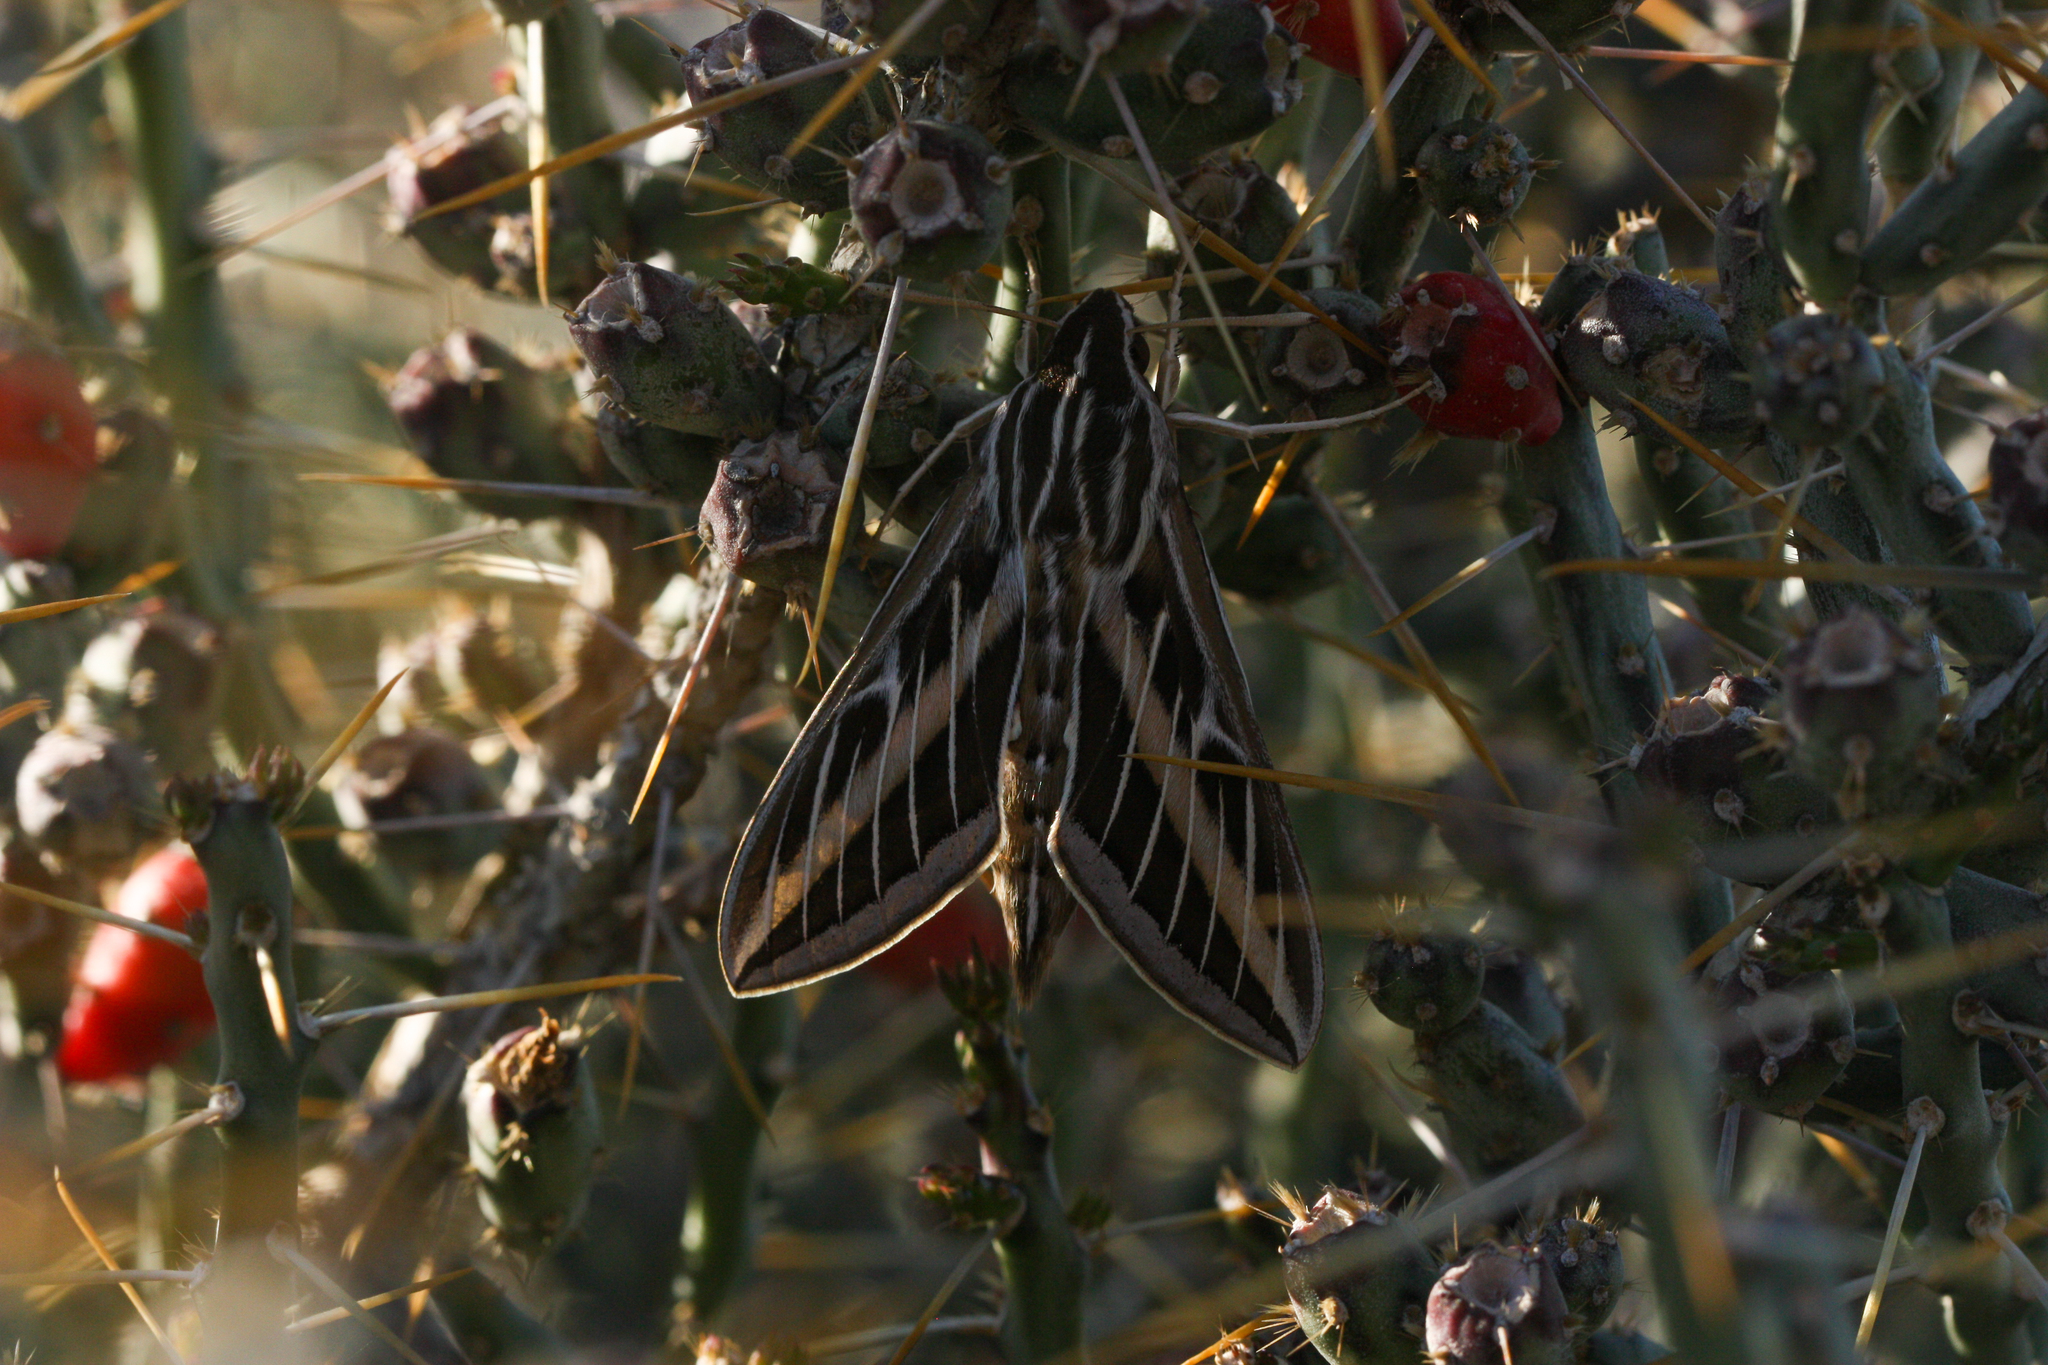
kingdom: Animalia
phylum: Arthropoda
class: Insecta
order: Lepidoptera
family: Sphingidae
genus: Hyles
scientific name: Hyles lineata
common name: White-lined sphinx
